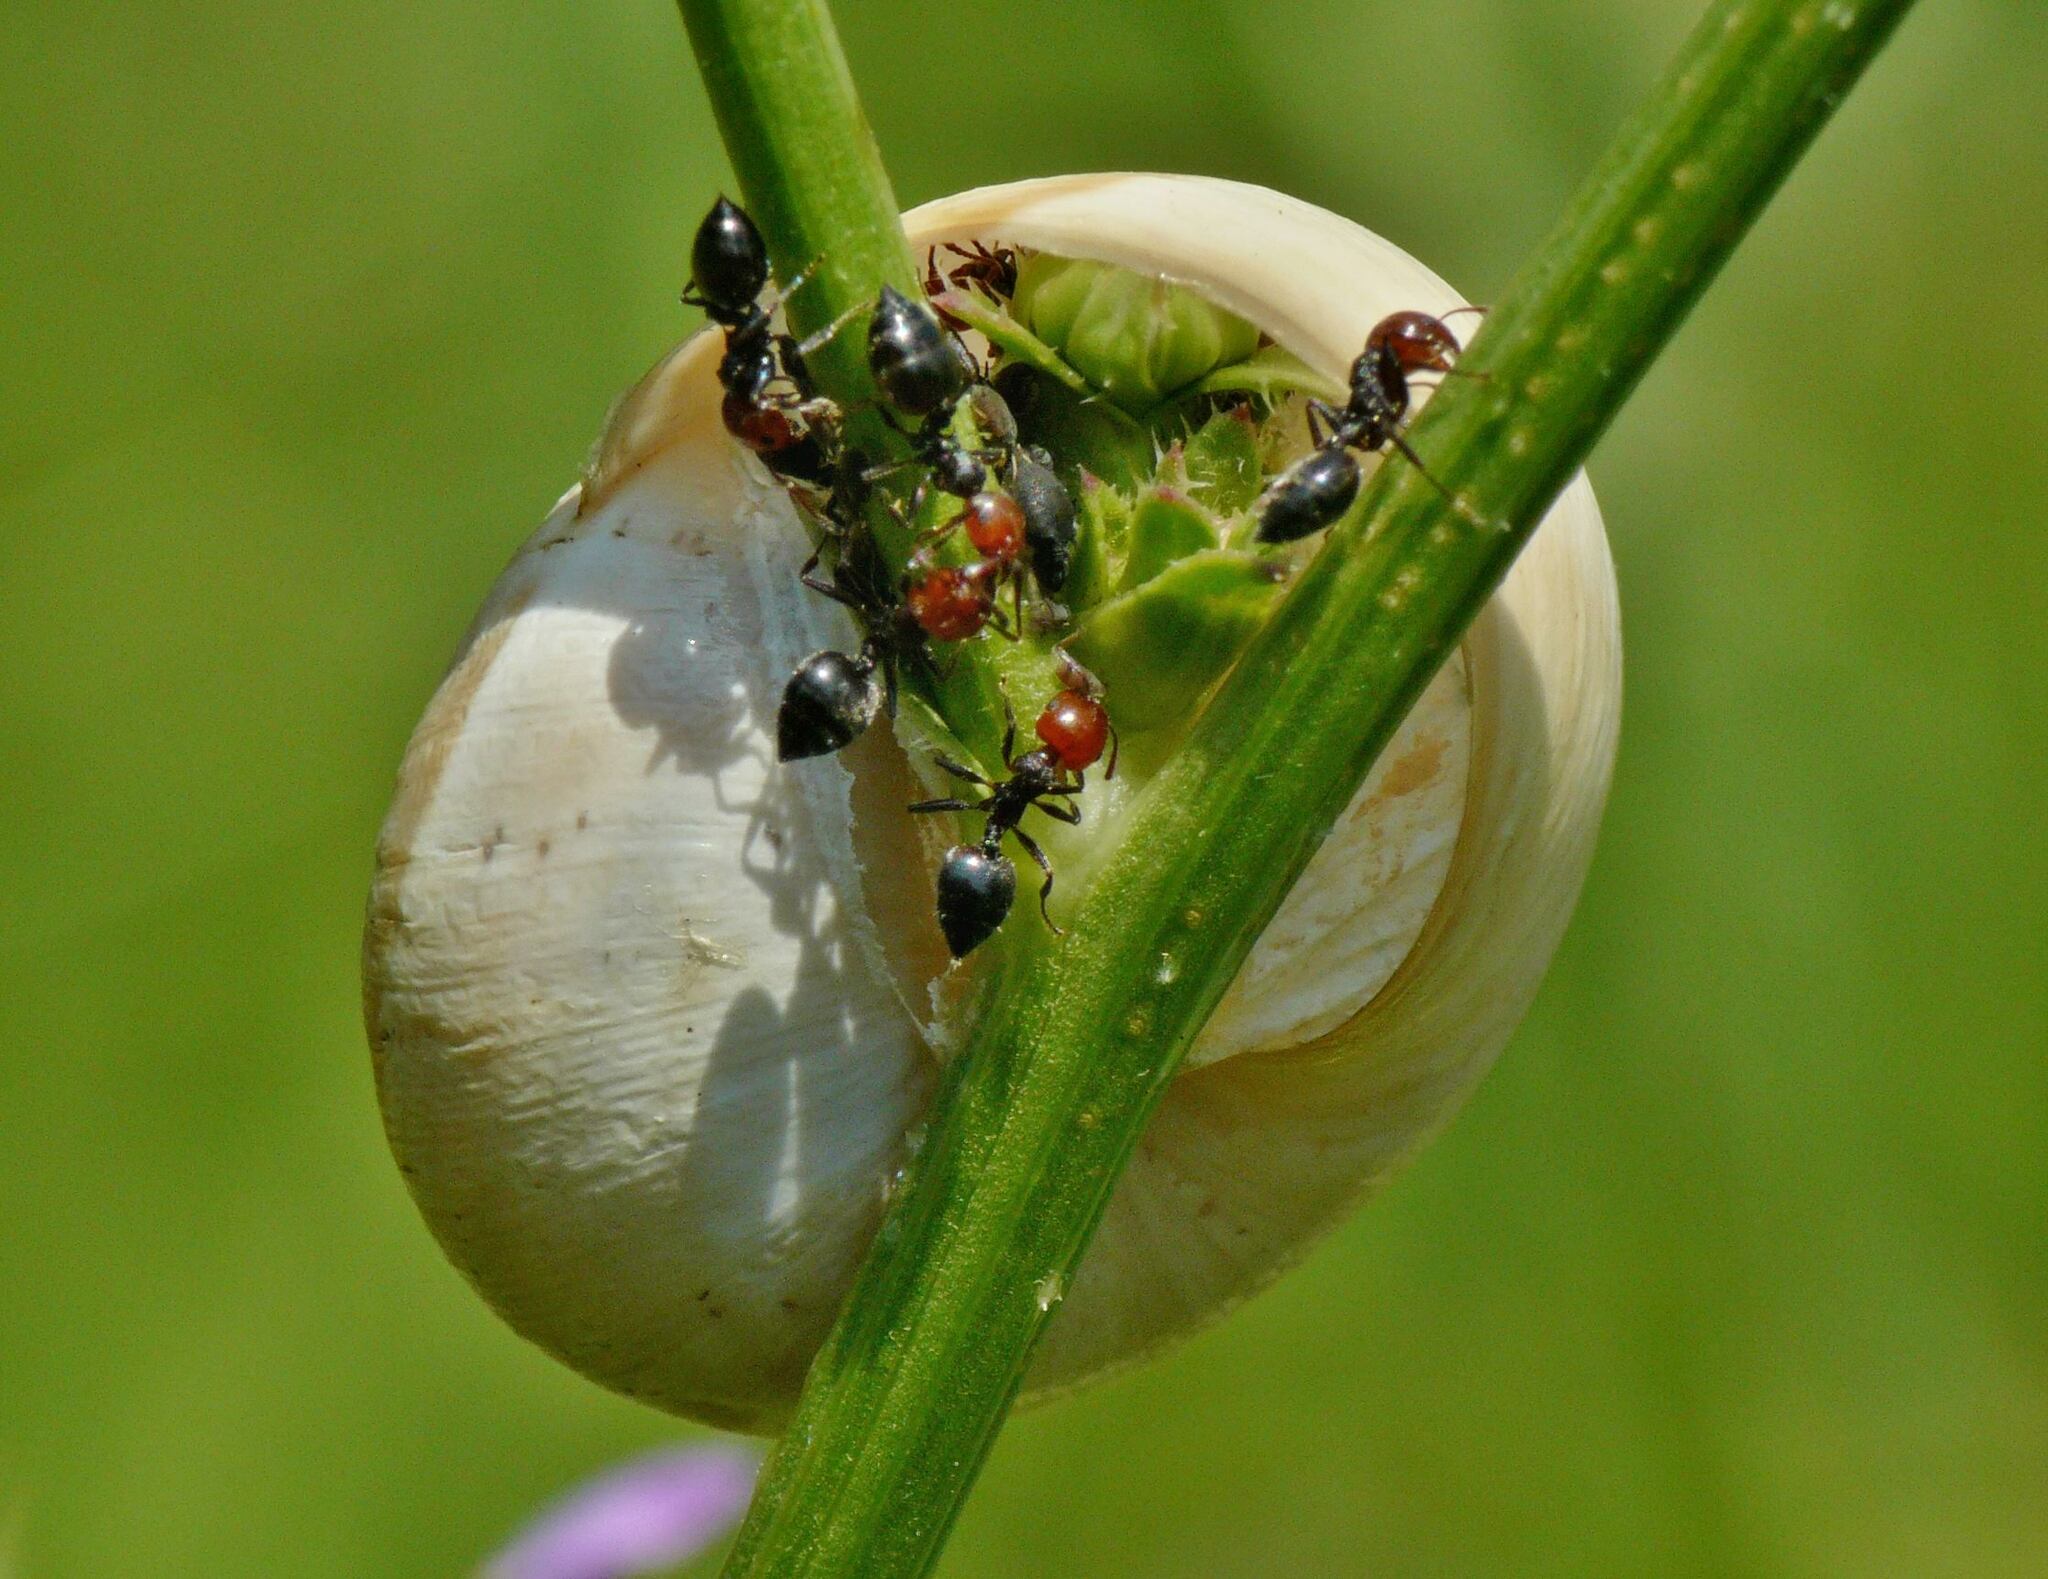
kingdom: Animalia
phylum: Arthropoda
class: Insecta
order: Hymenoptera
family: Formicidae
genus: Crematogaster
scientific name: Crematogaster scutellaris
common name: Fourmi du liège
